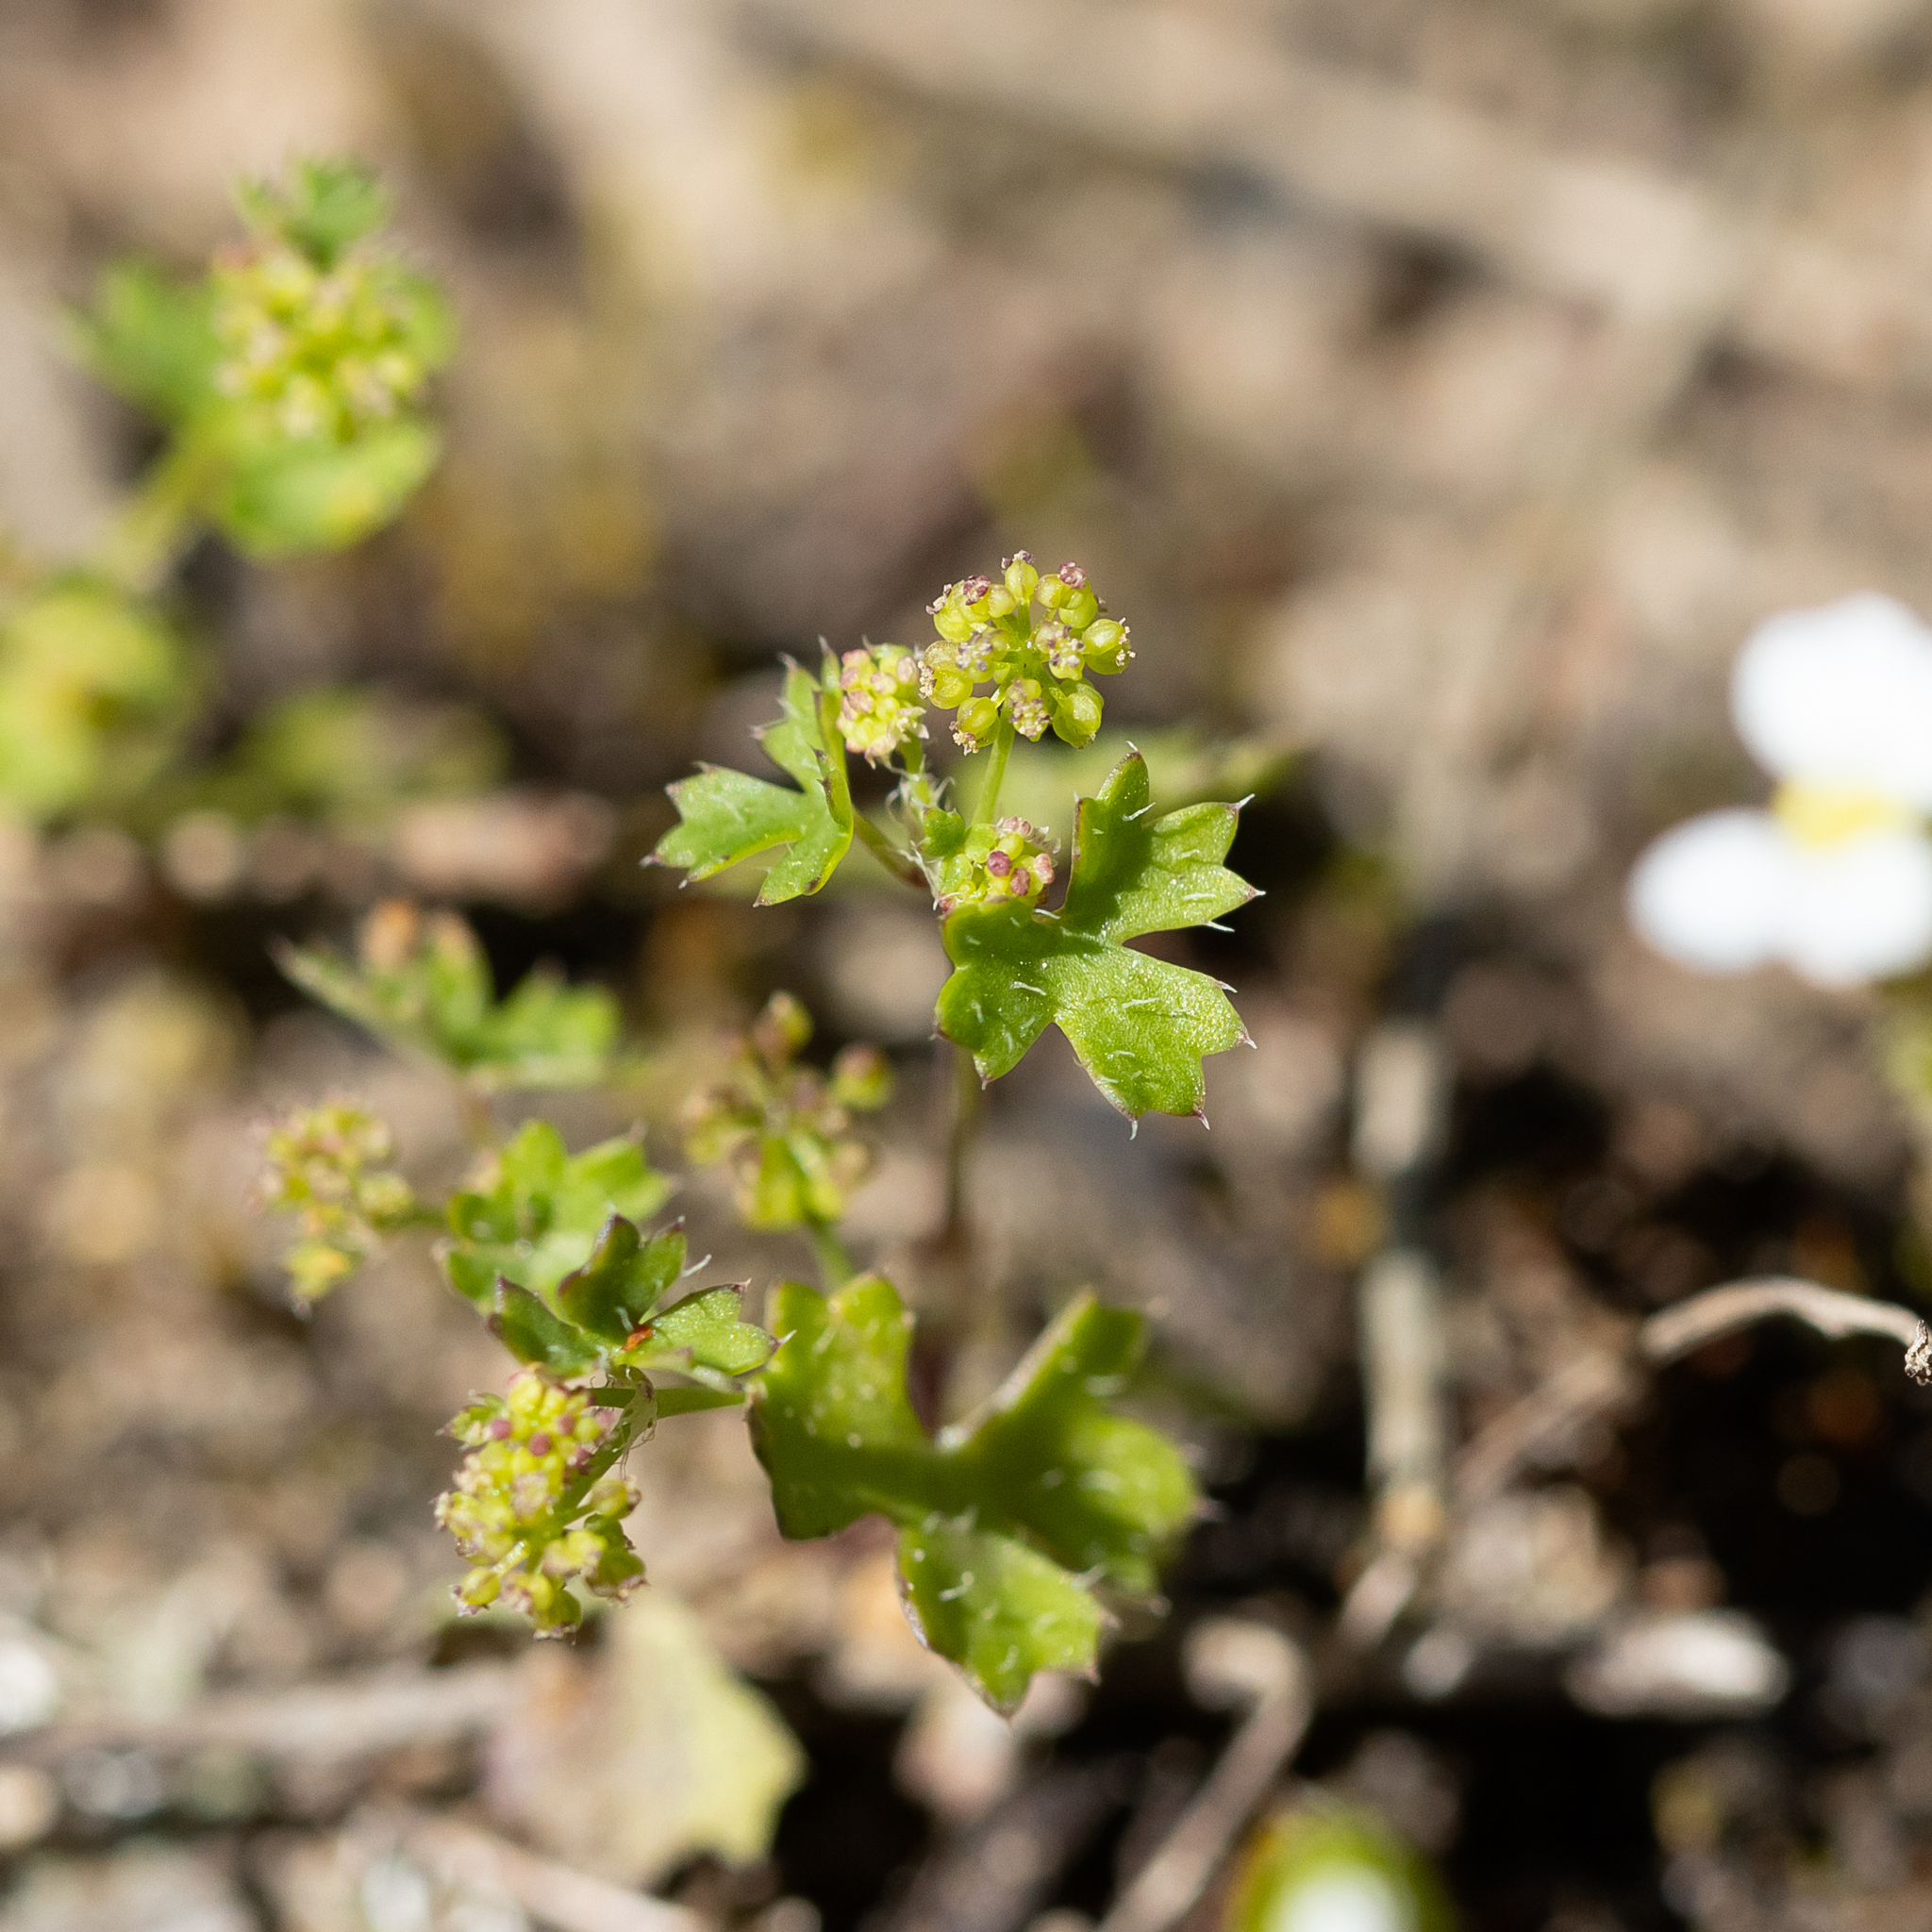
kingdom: Plantae
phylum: Tracheophyta
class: Magnoliopsida
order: Apiales
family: Araliaceae
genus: Hydrocotyle
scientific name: Hydrocotyle callicarpa
